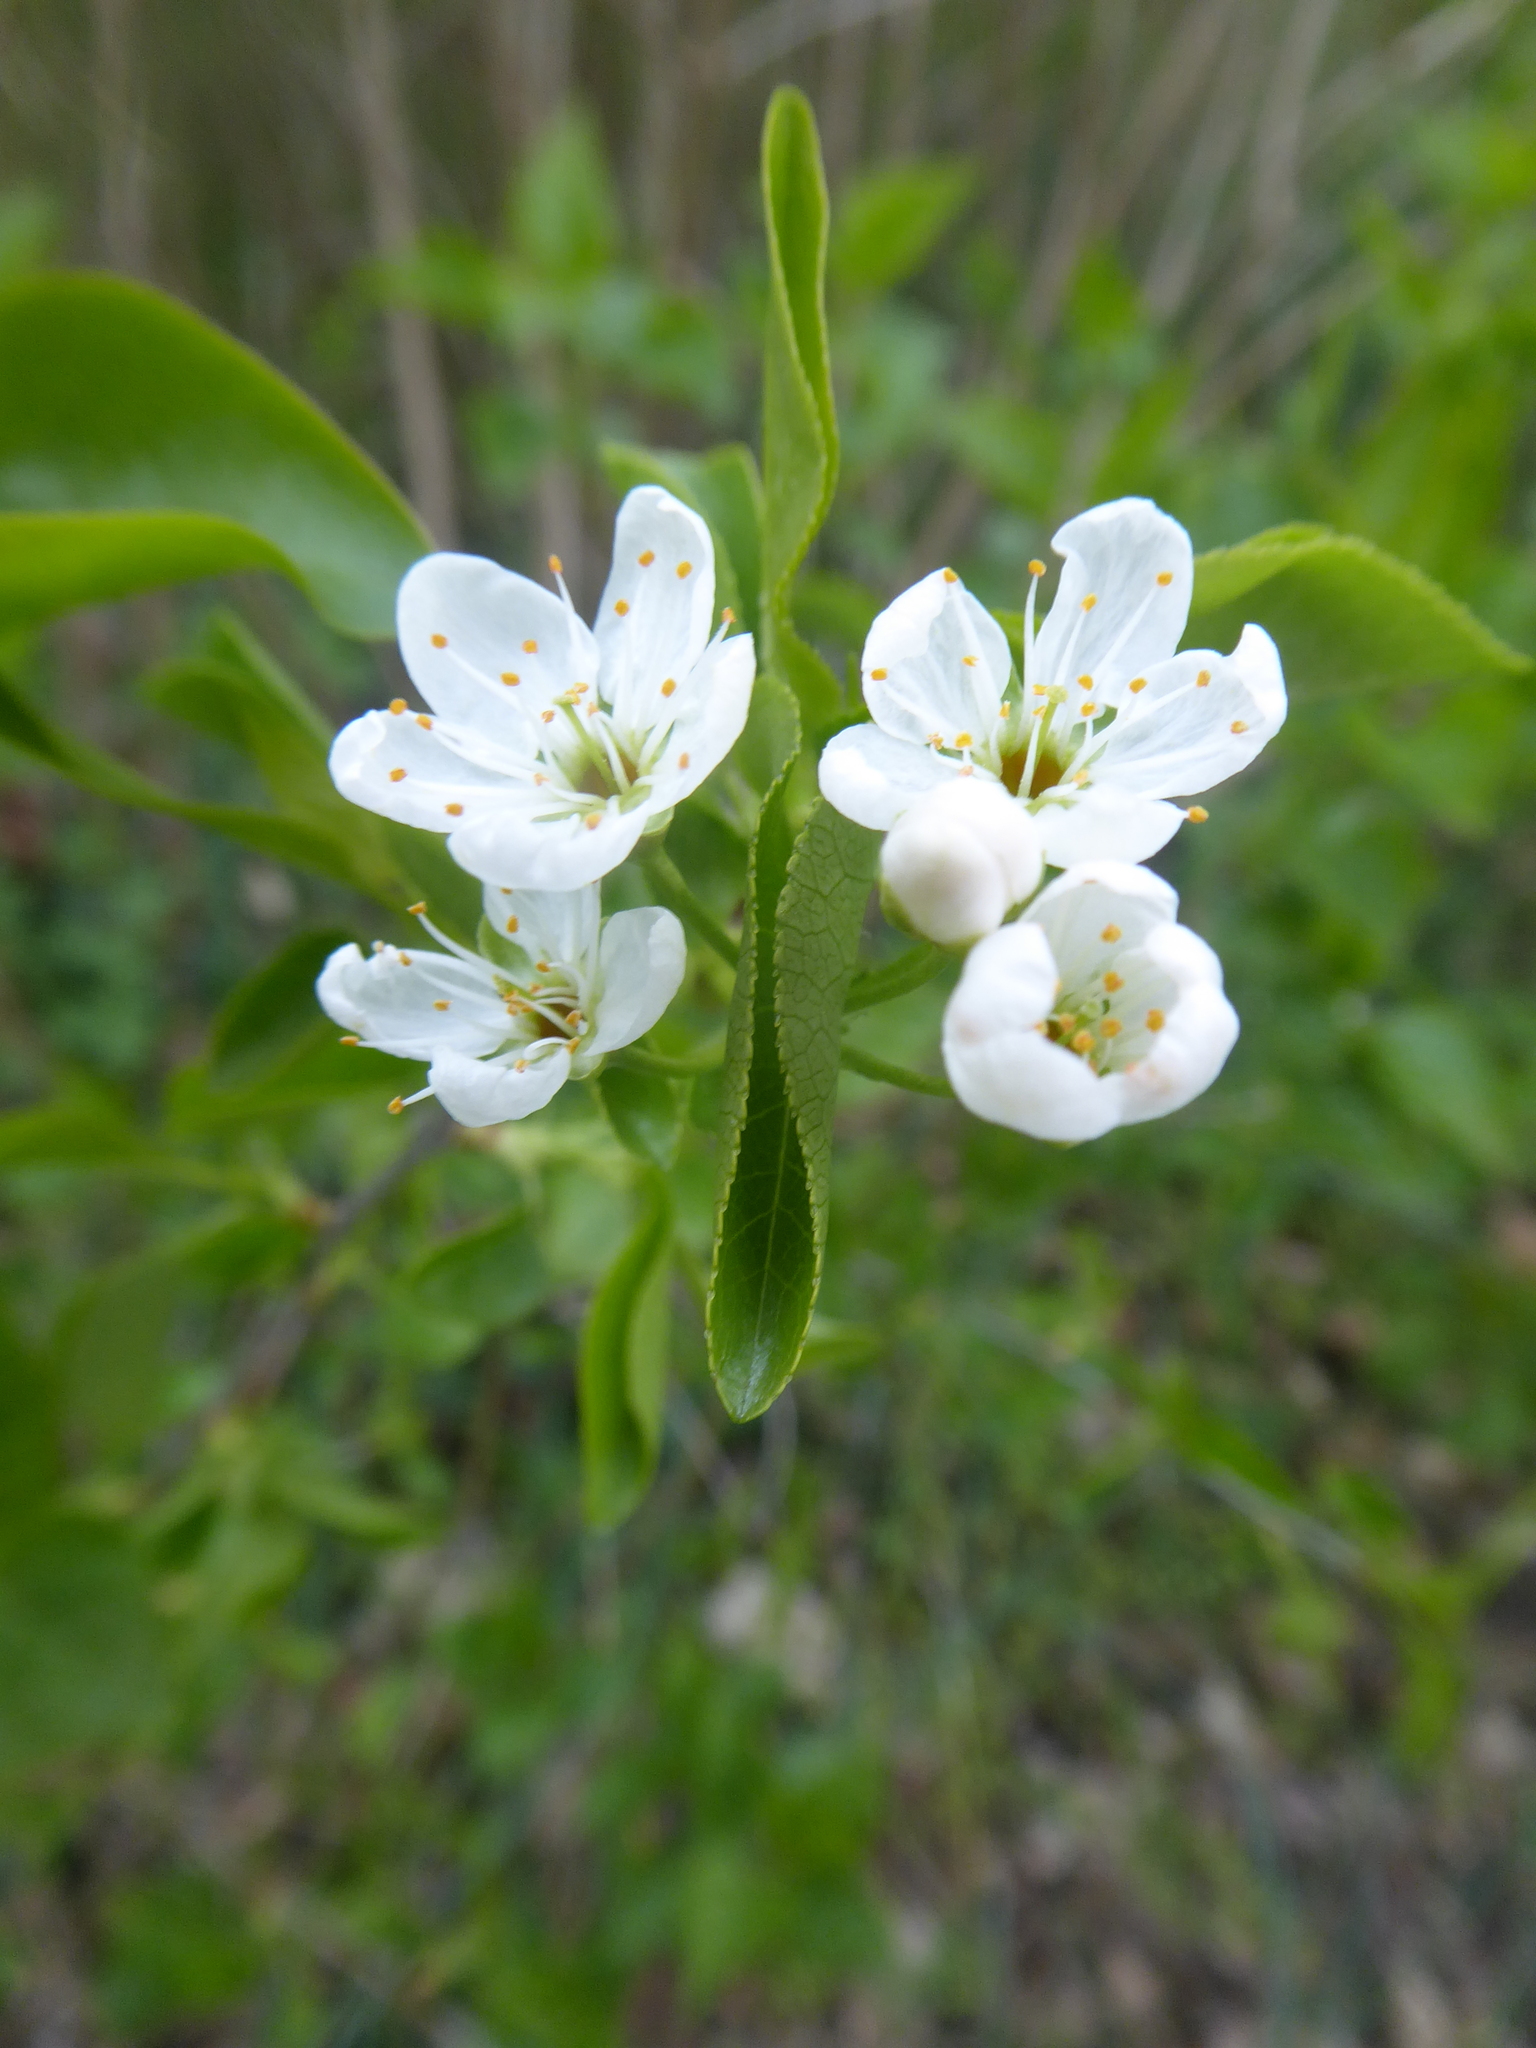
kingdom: Plantae
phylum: Tracheophyta
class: Magnoliopsida
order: Rosales
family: Rosaceae
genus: Prunus
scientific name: Prunus mahaleb
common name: Mahaleb cherry
